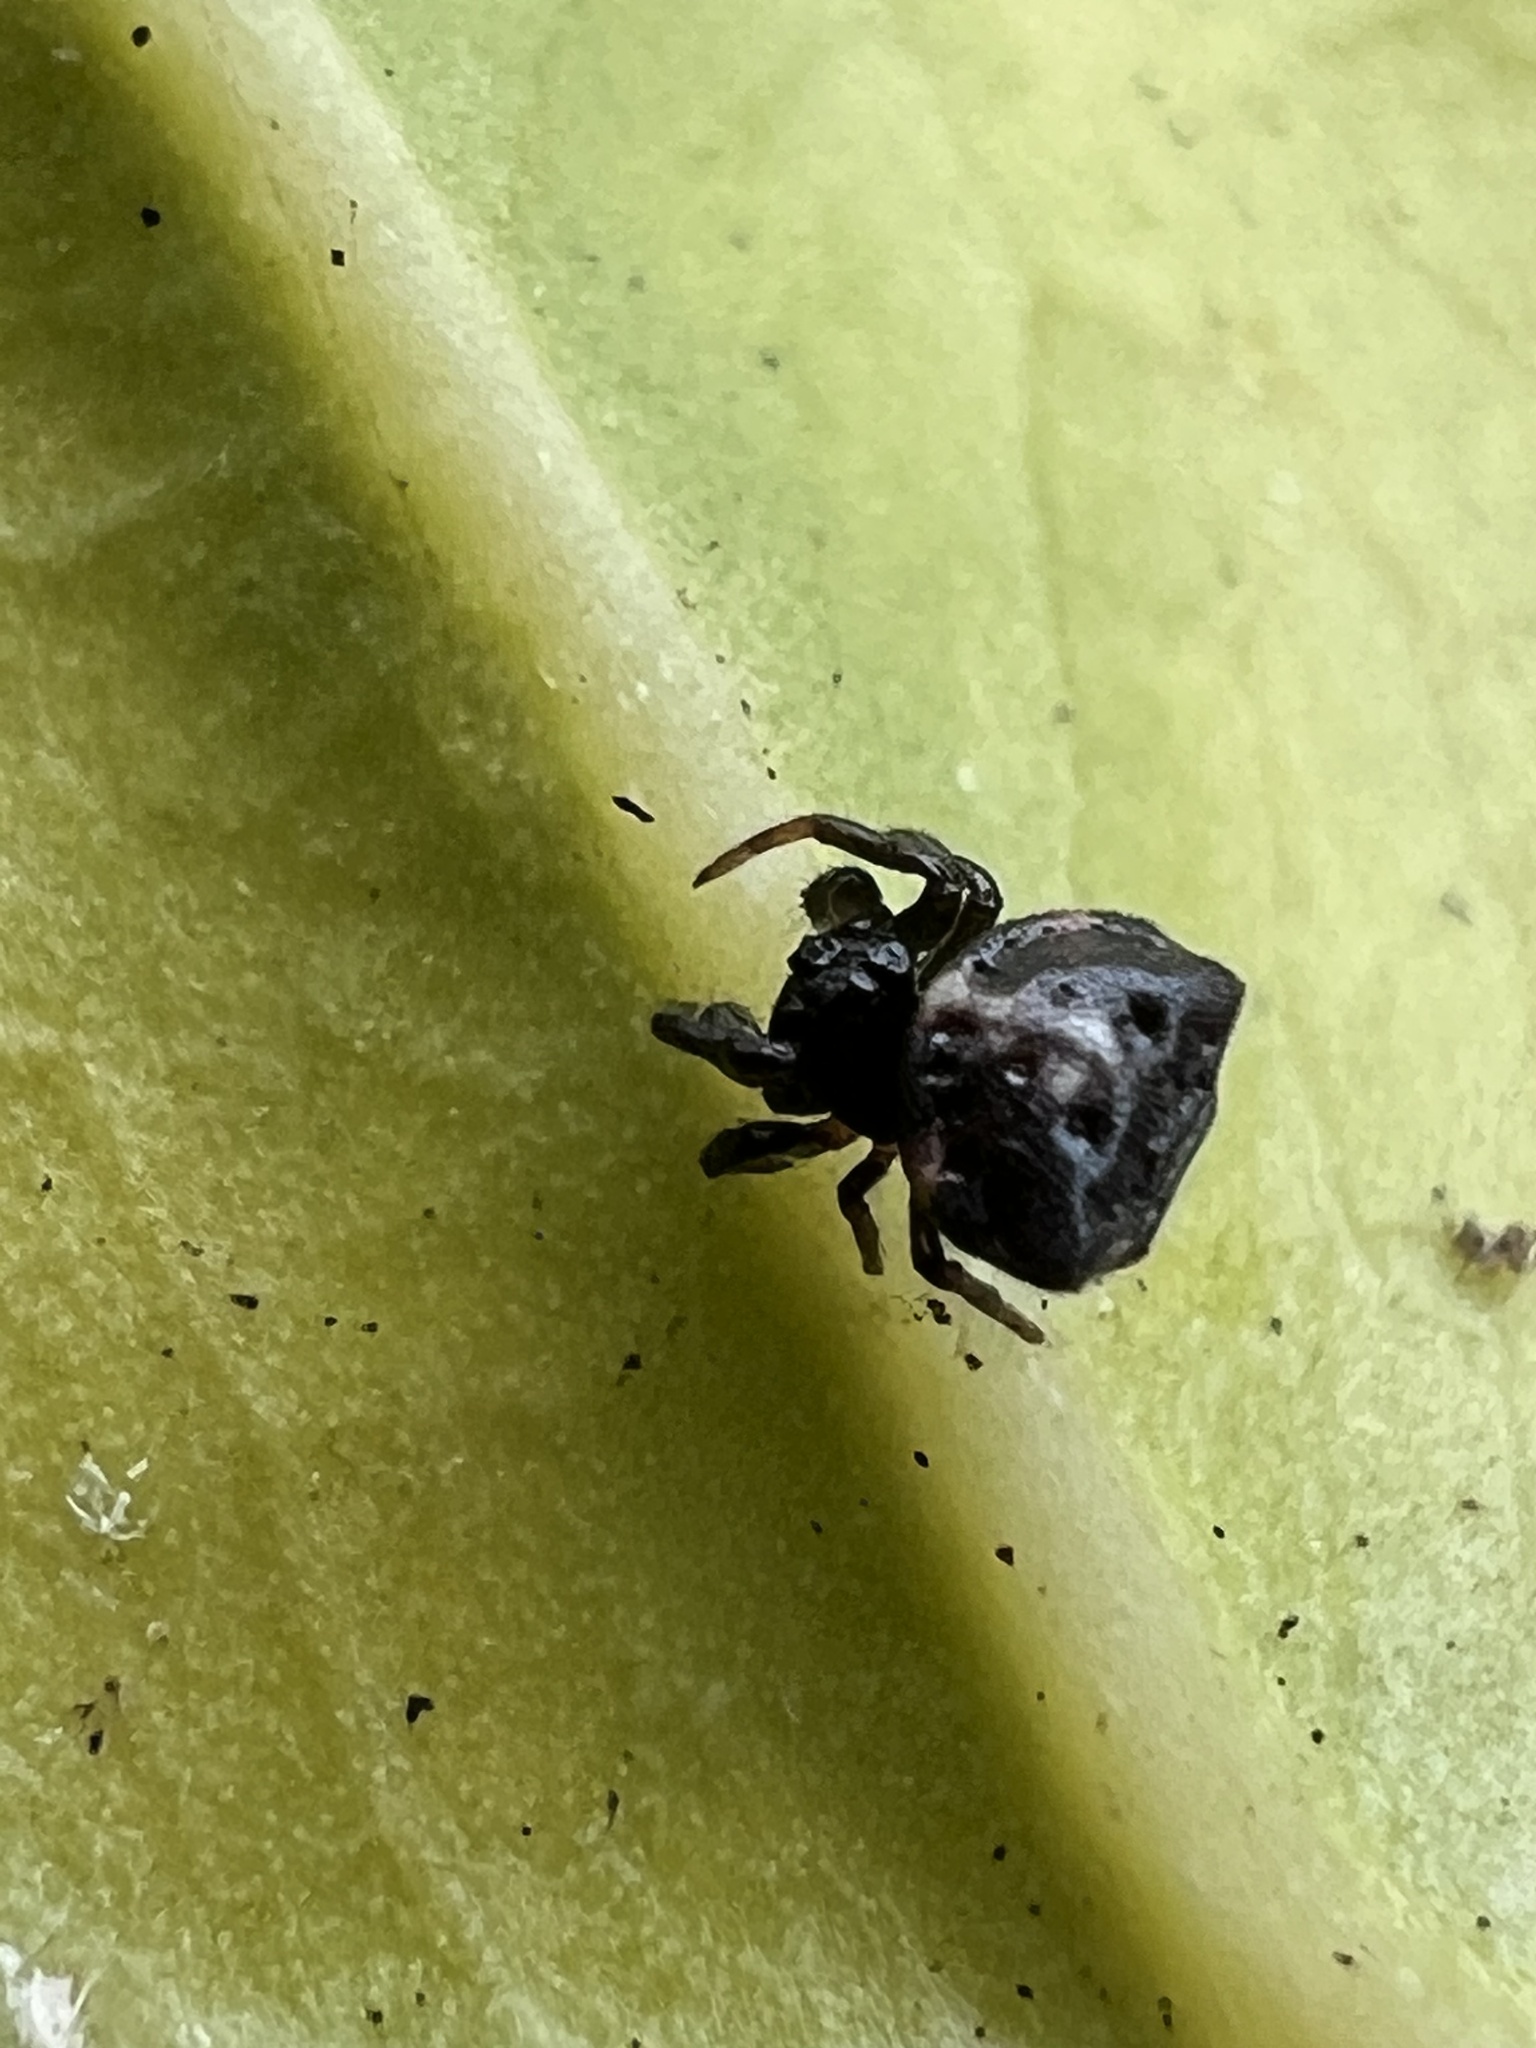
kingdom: Animalia
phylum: Arthropoda
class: Arachnida
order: Araneae
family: Araneidae
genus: Gasteracantha
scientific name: Gasteracantha cancriformis
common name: Orb weavers
